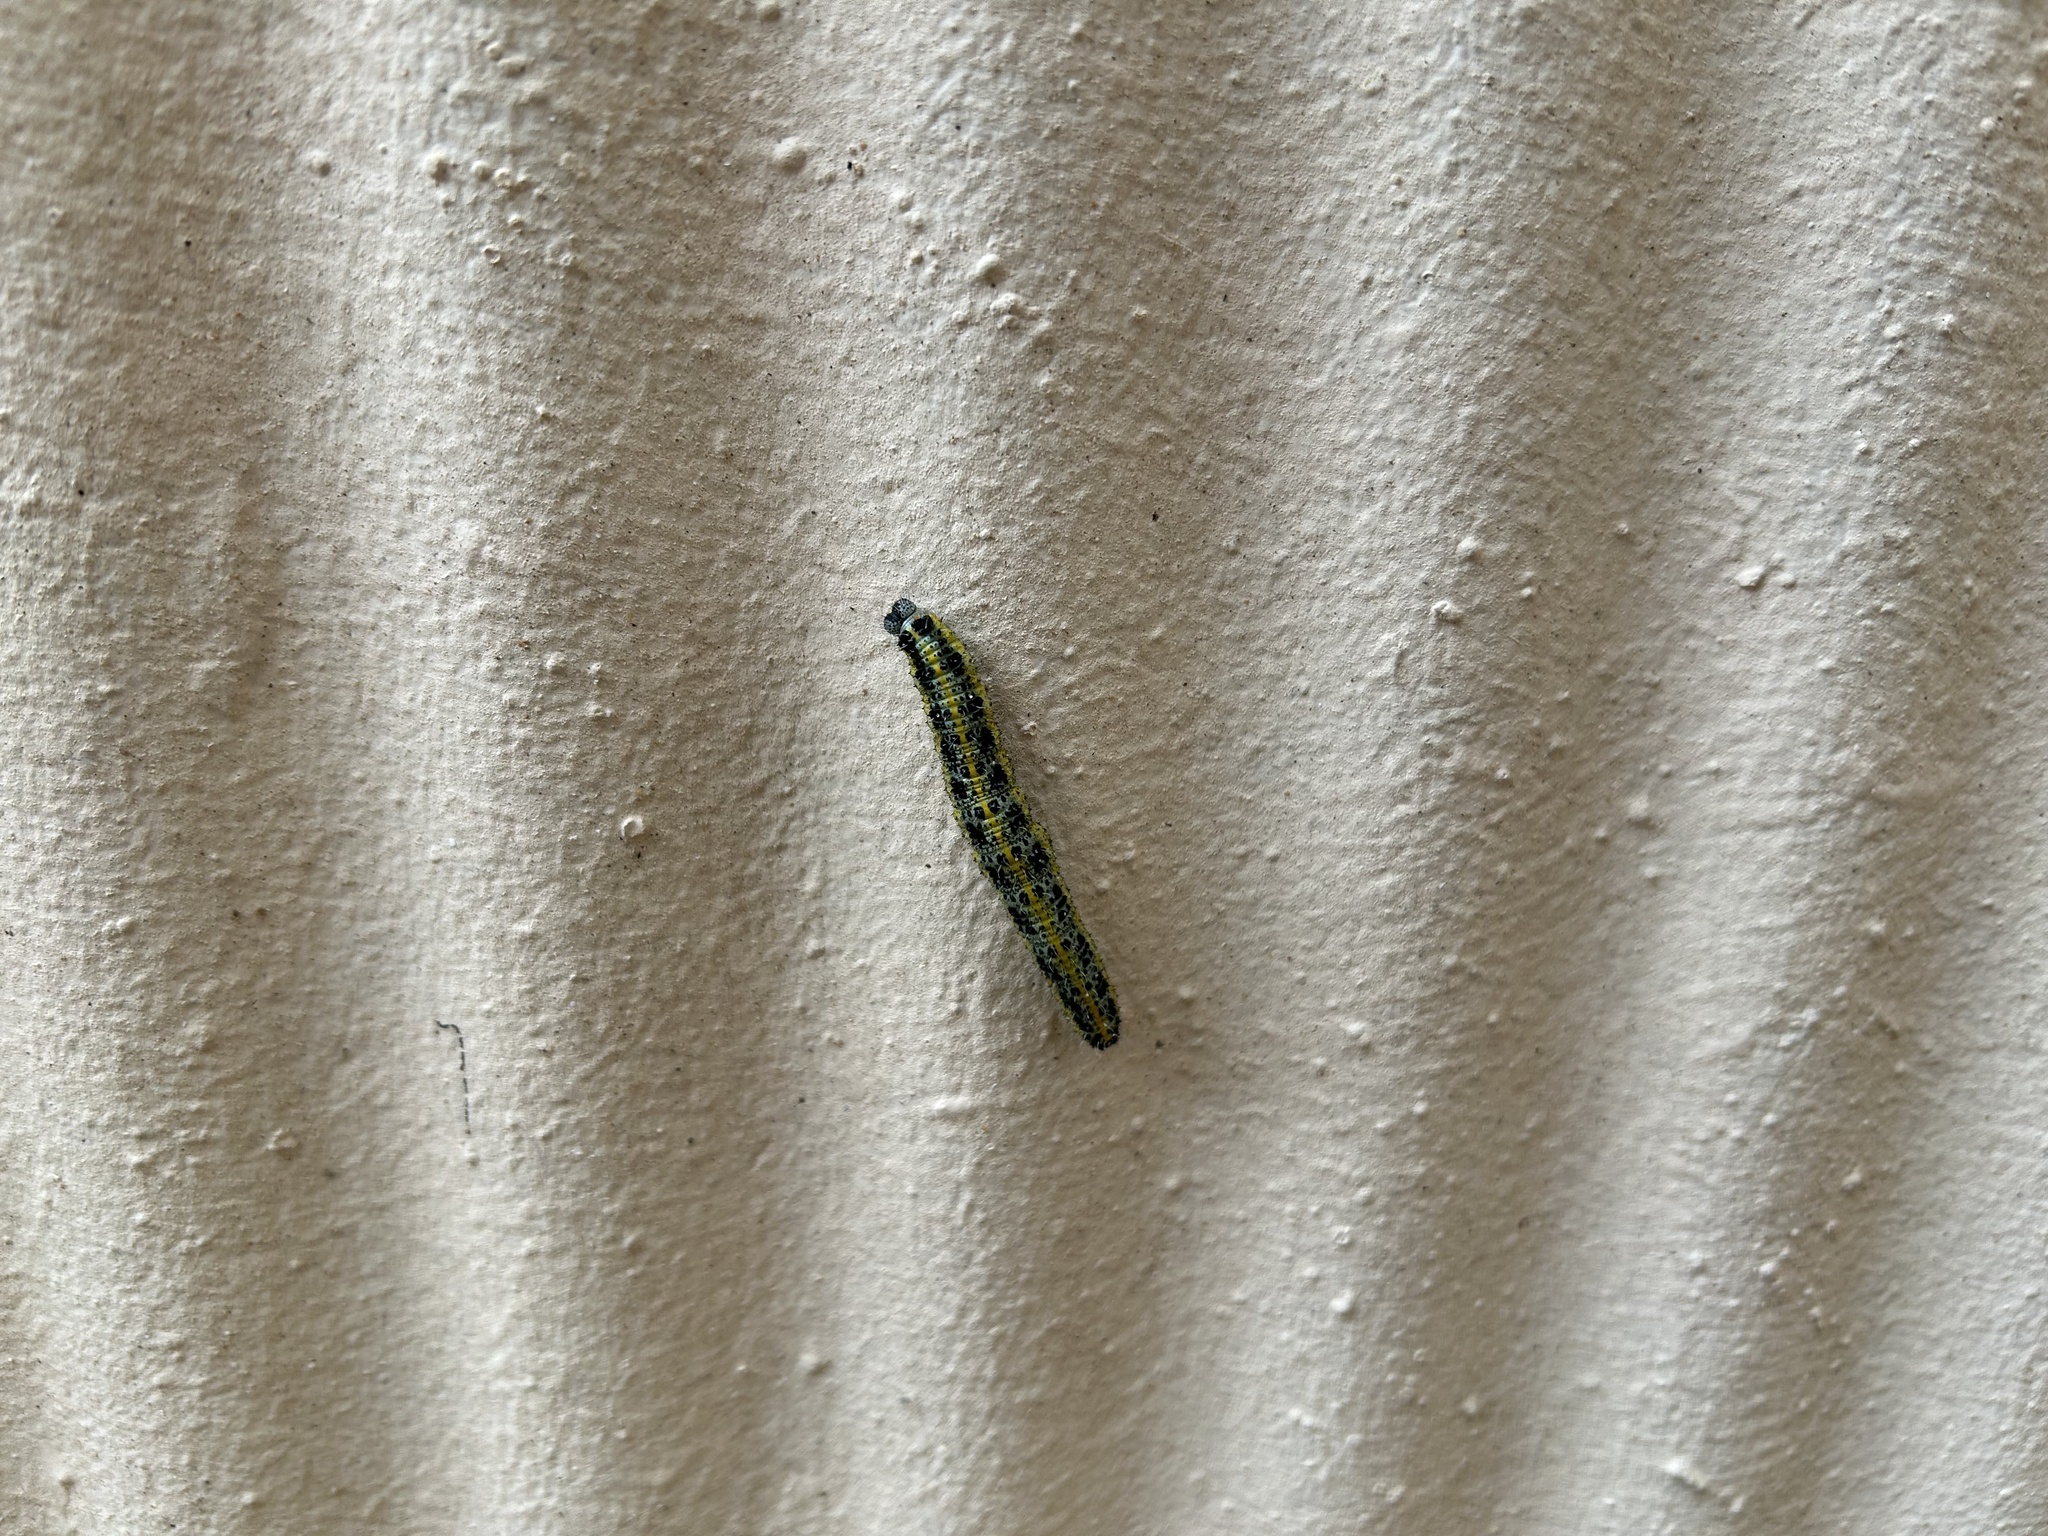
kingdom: Animalia
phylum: Arthropoda
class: Insecta
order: Lepidoptera
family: Pieridae
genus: Pieris
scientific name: Pieris brassicae
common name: Large white
